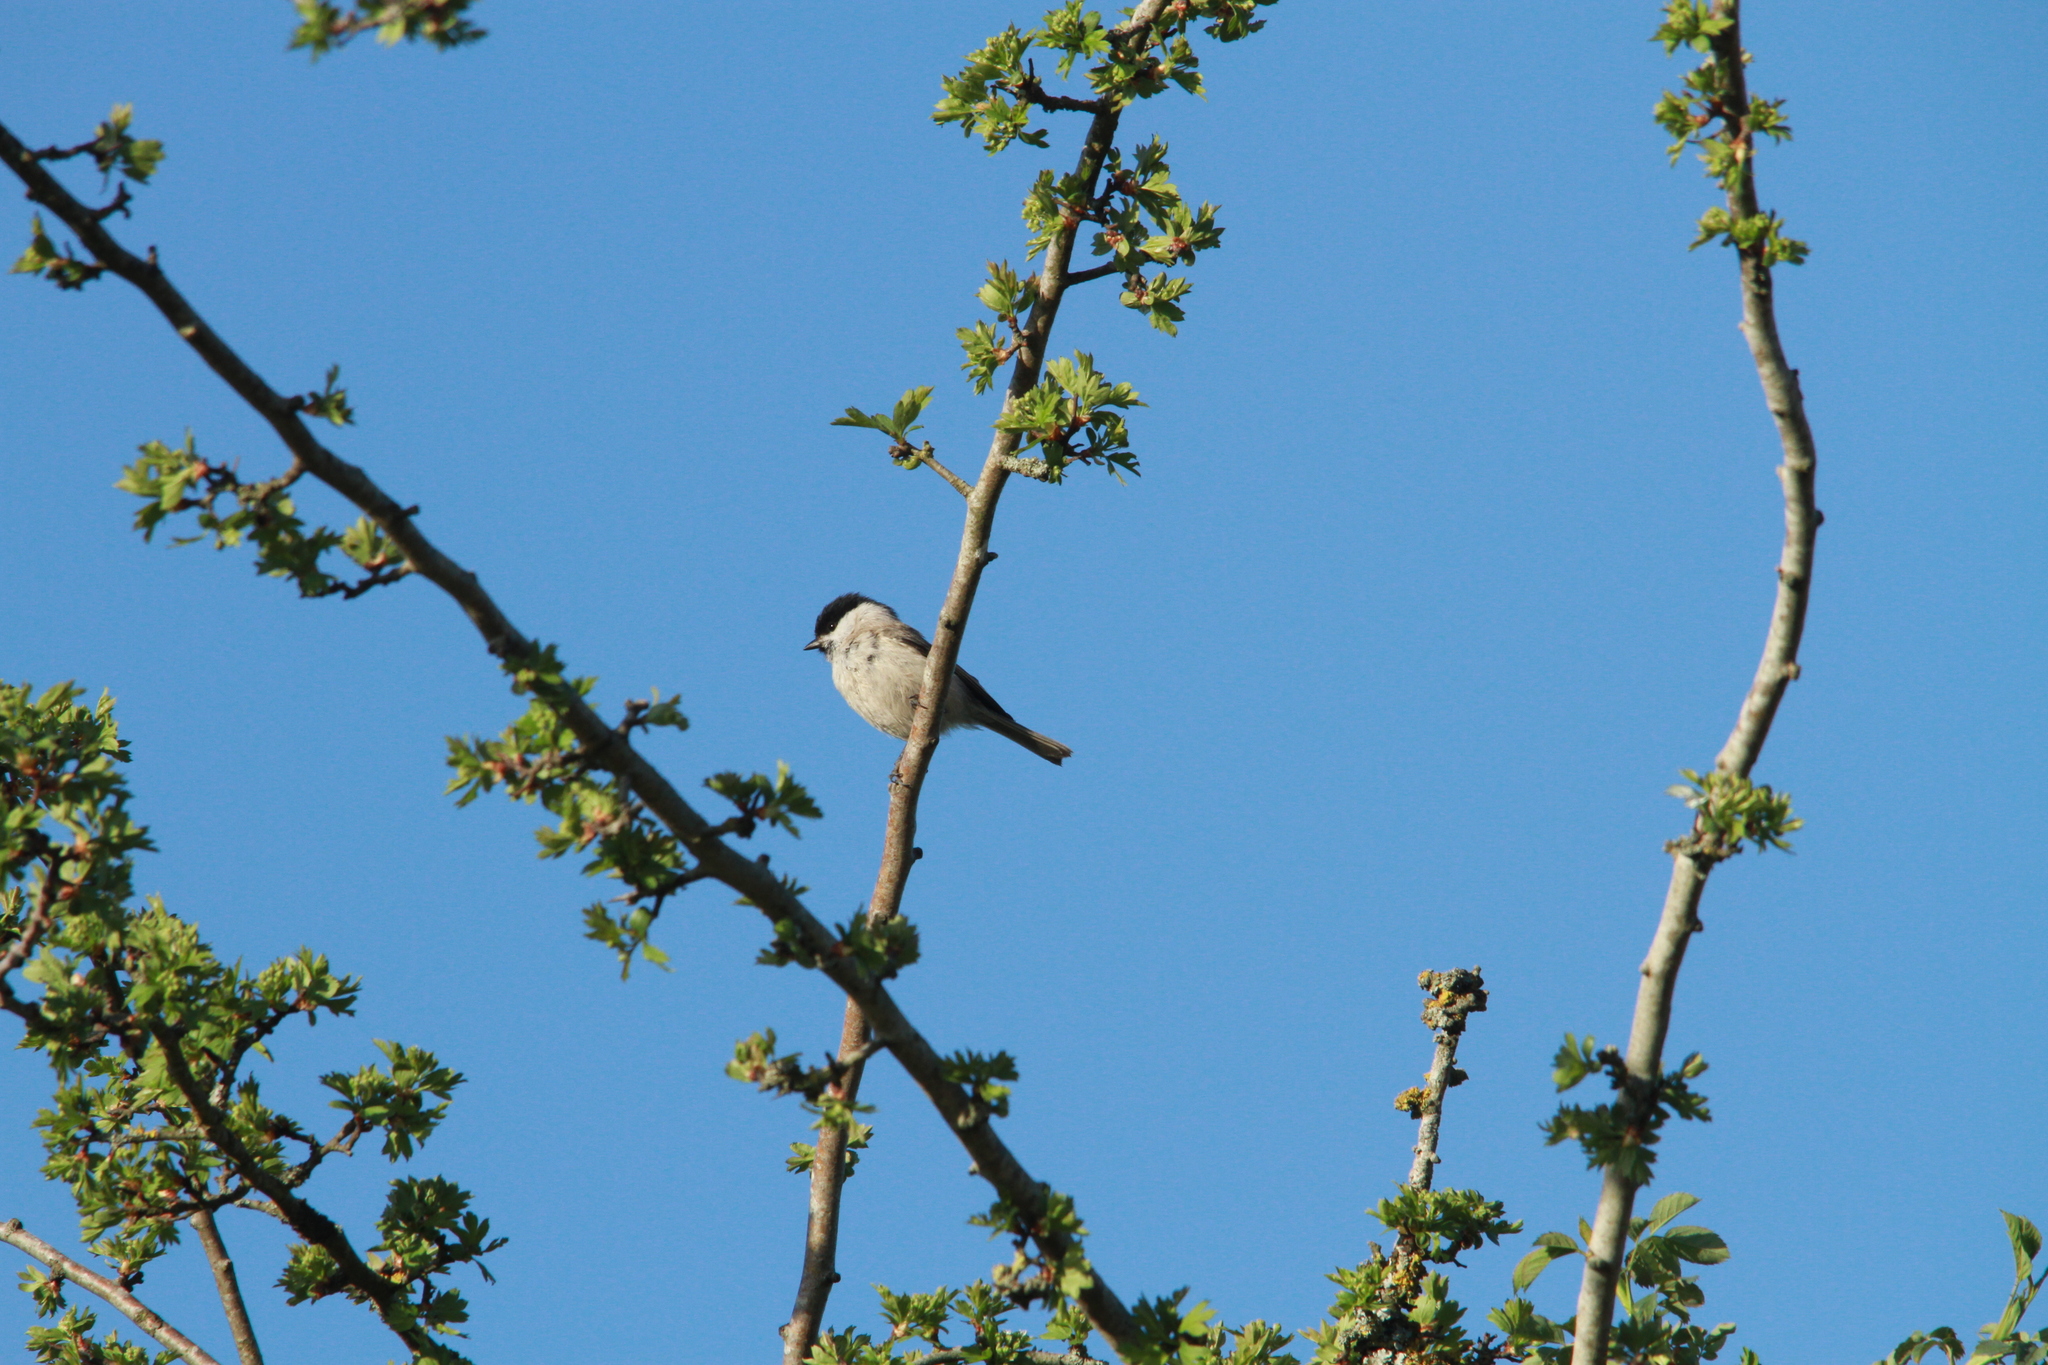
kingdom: Animalia
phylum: Chordata
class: Aves
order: Passeriformes
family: Paridae
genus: Poecile
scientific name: Poecile palustris
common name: Marsh tit
